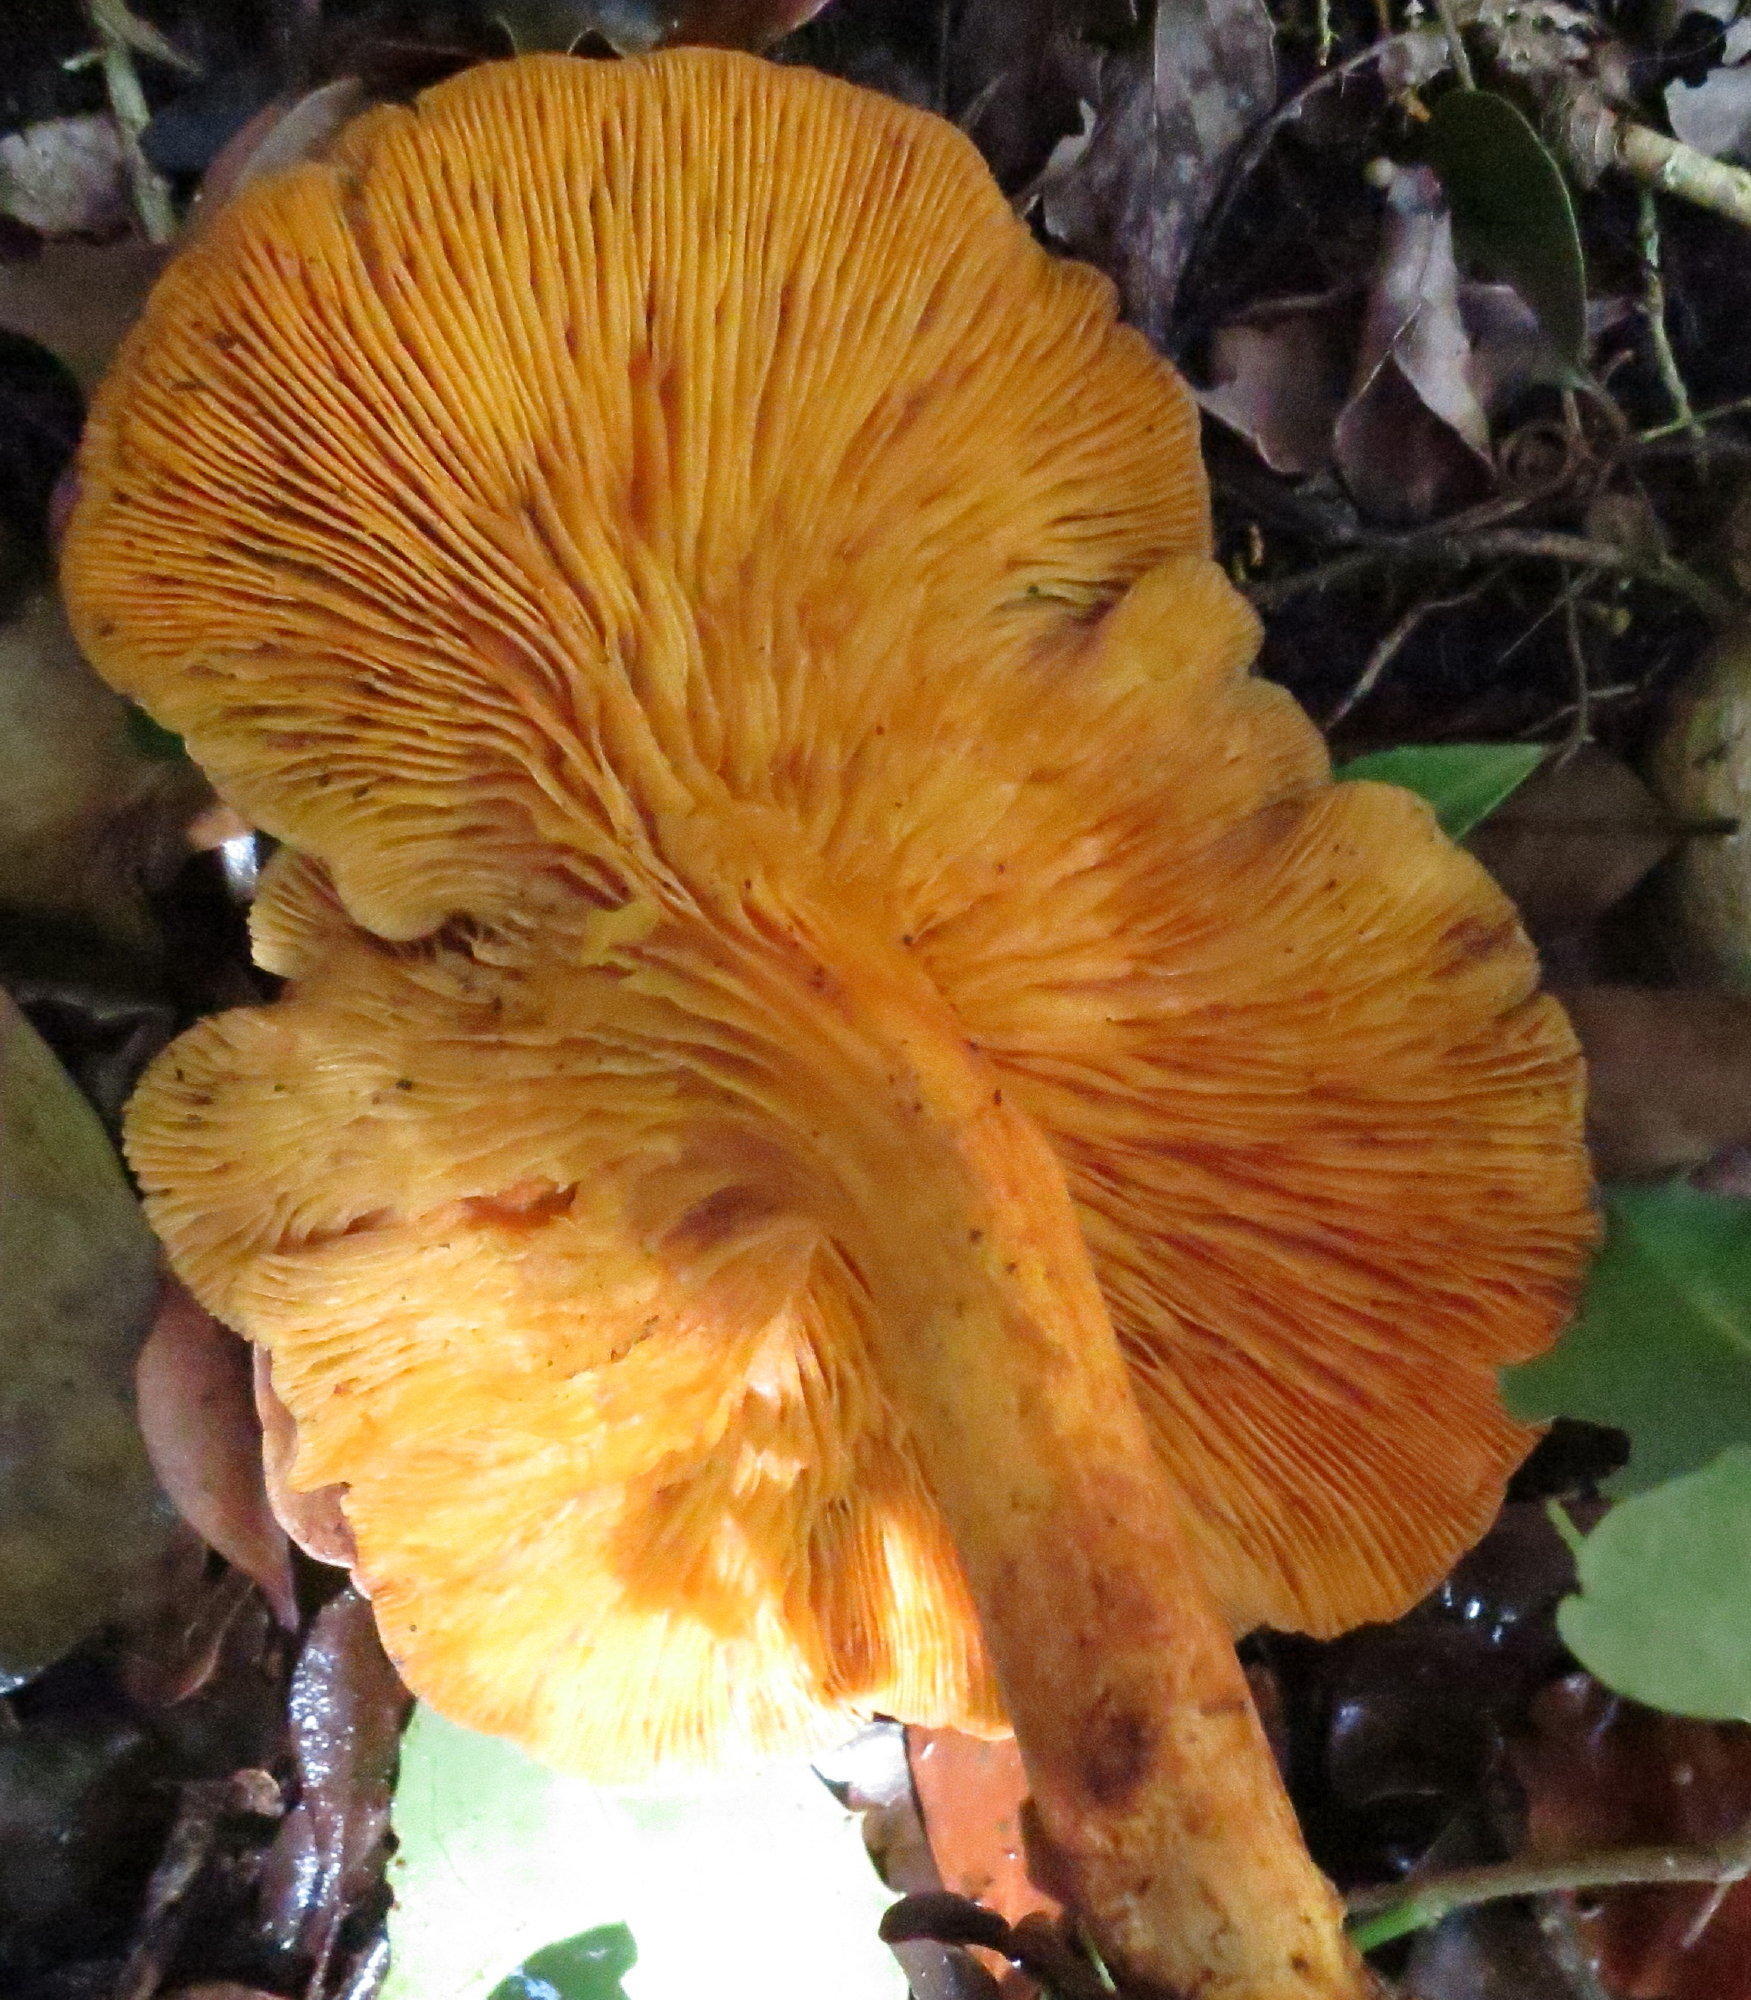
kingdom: Fungi
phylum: Basidiomycota
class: Agaricomycetes
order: Agaricales
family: Omphalotaceae
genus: Omphalotus
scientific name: Omphalotus olearius
